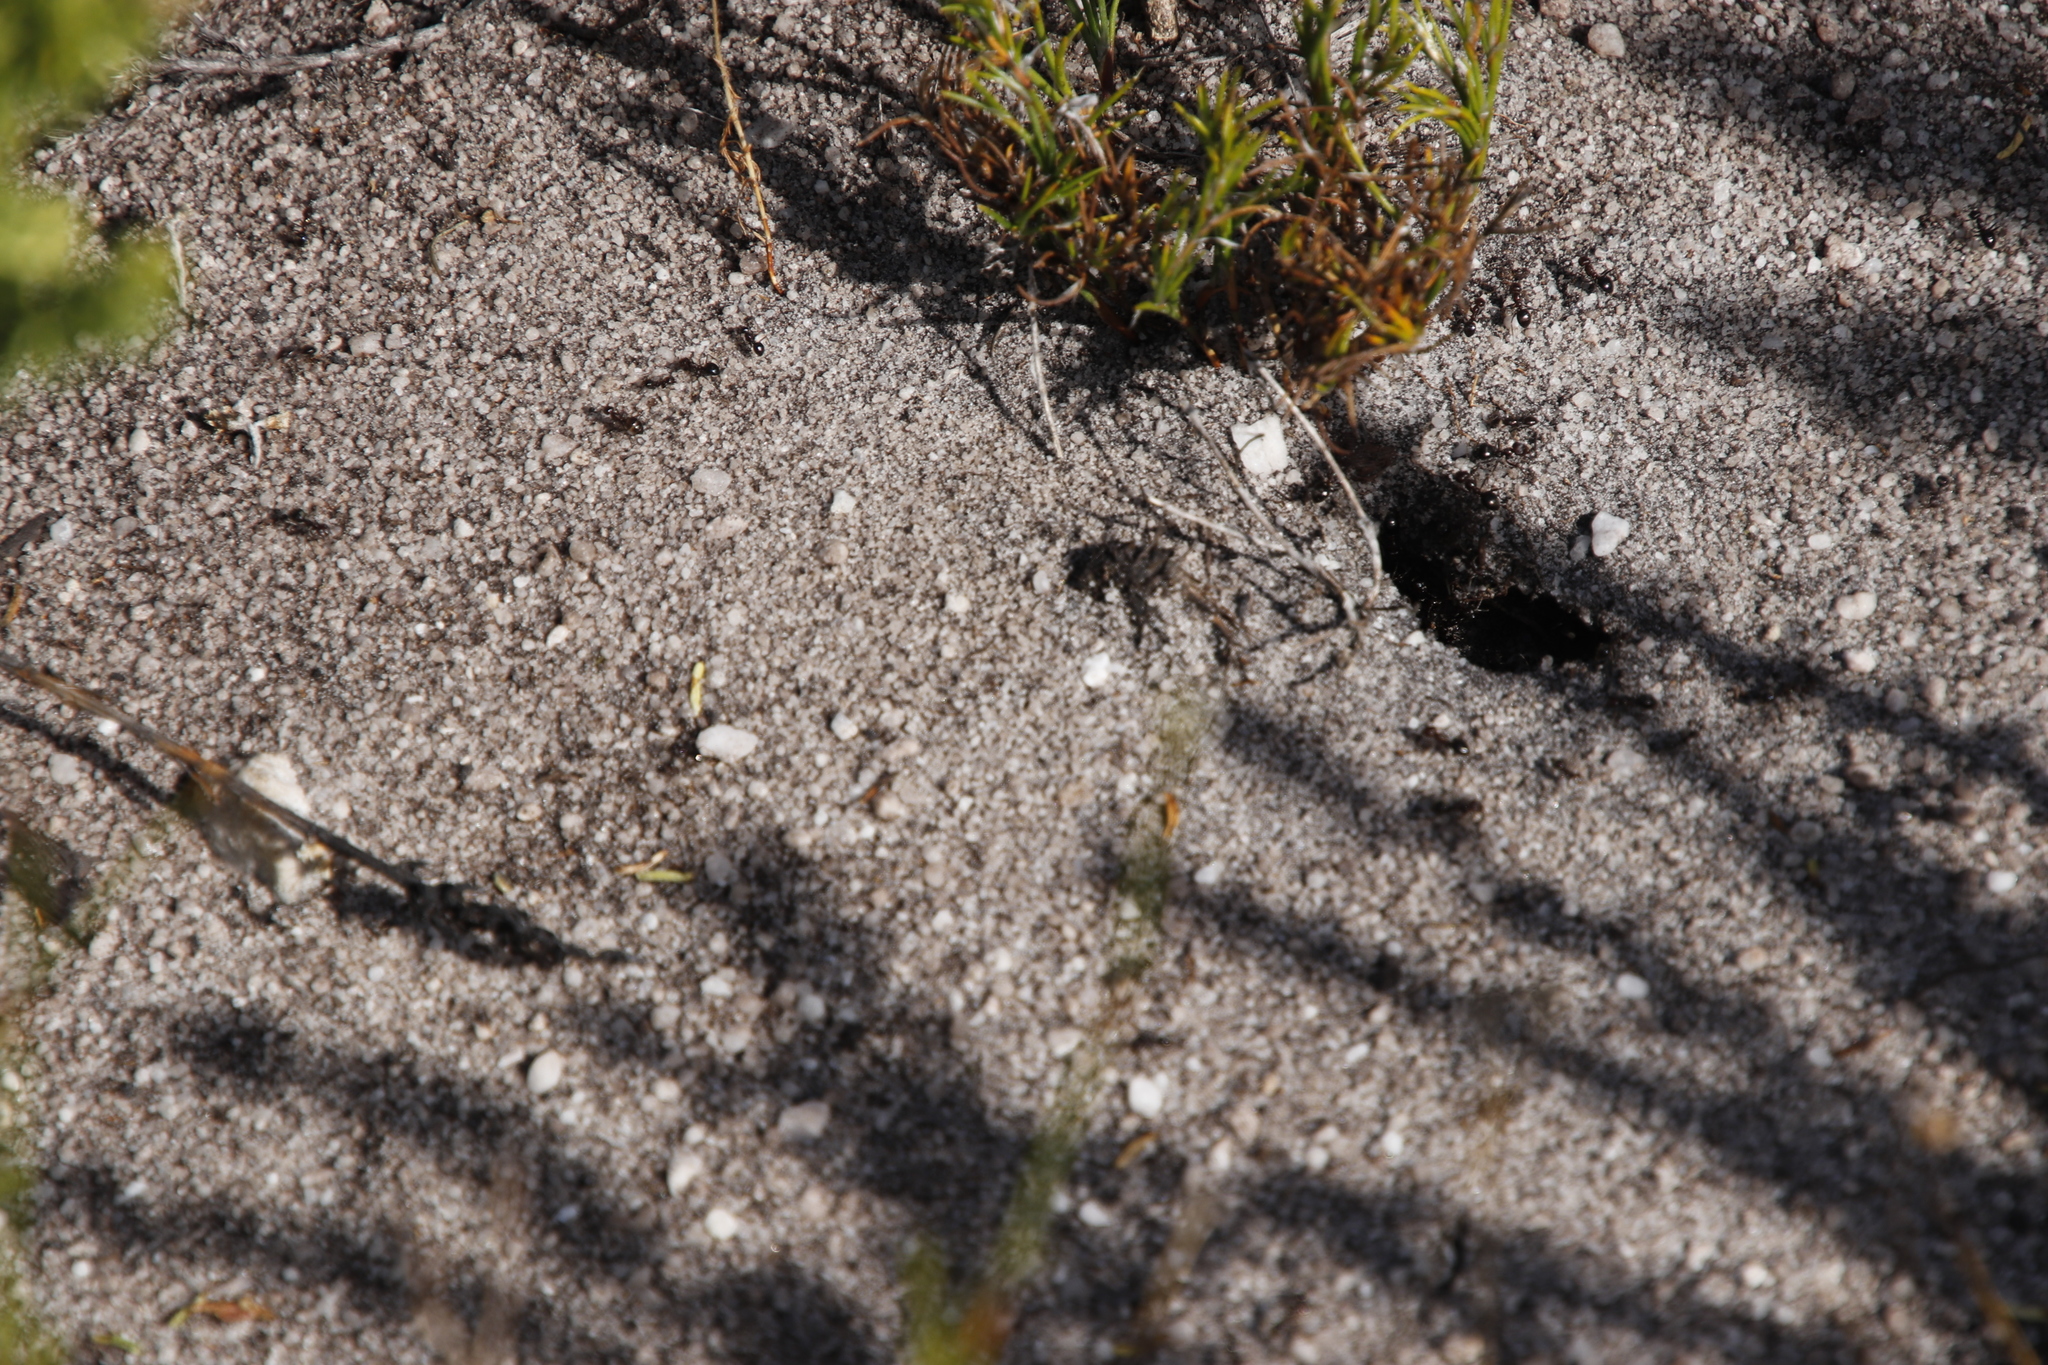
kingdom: Animalia
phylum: Arthropoda
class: Insecta
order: Hymenoptera
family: Formicidae
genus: Anoplolepis
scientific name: Anoplolepis steingroeveri
